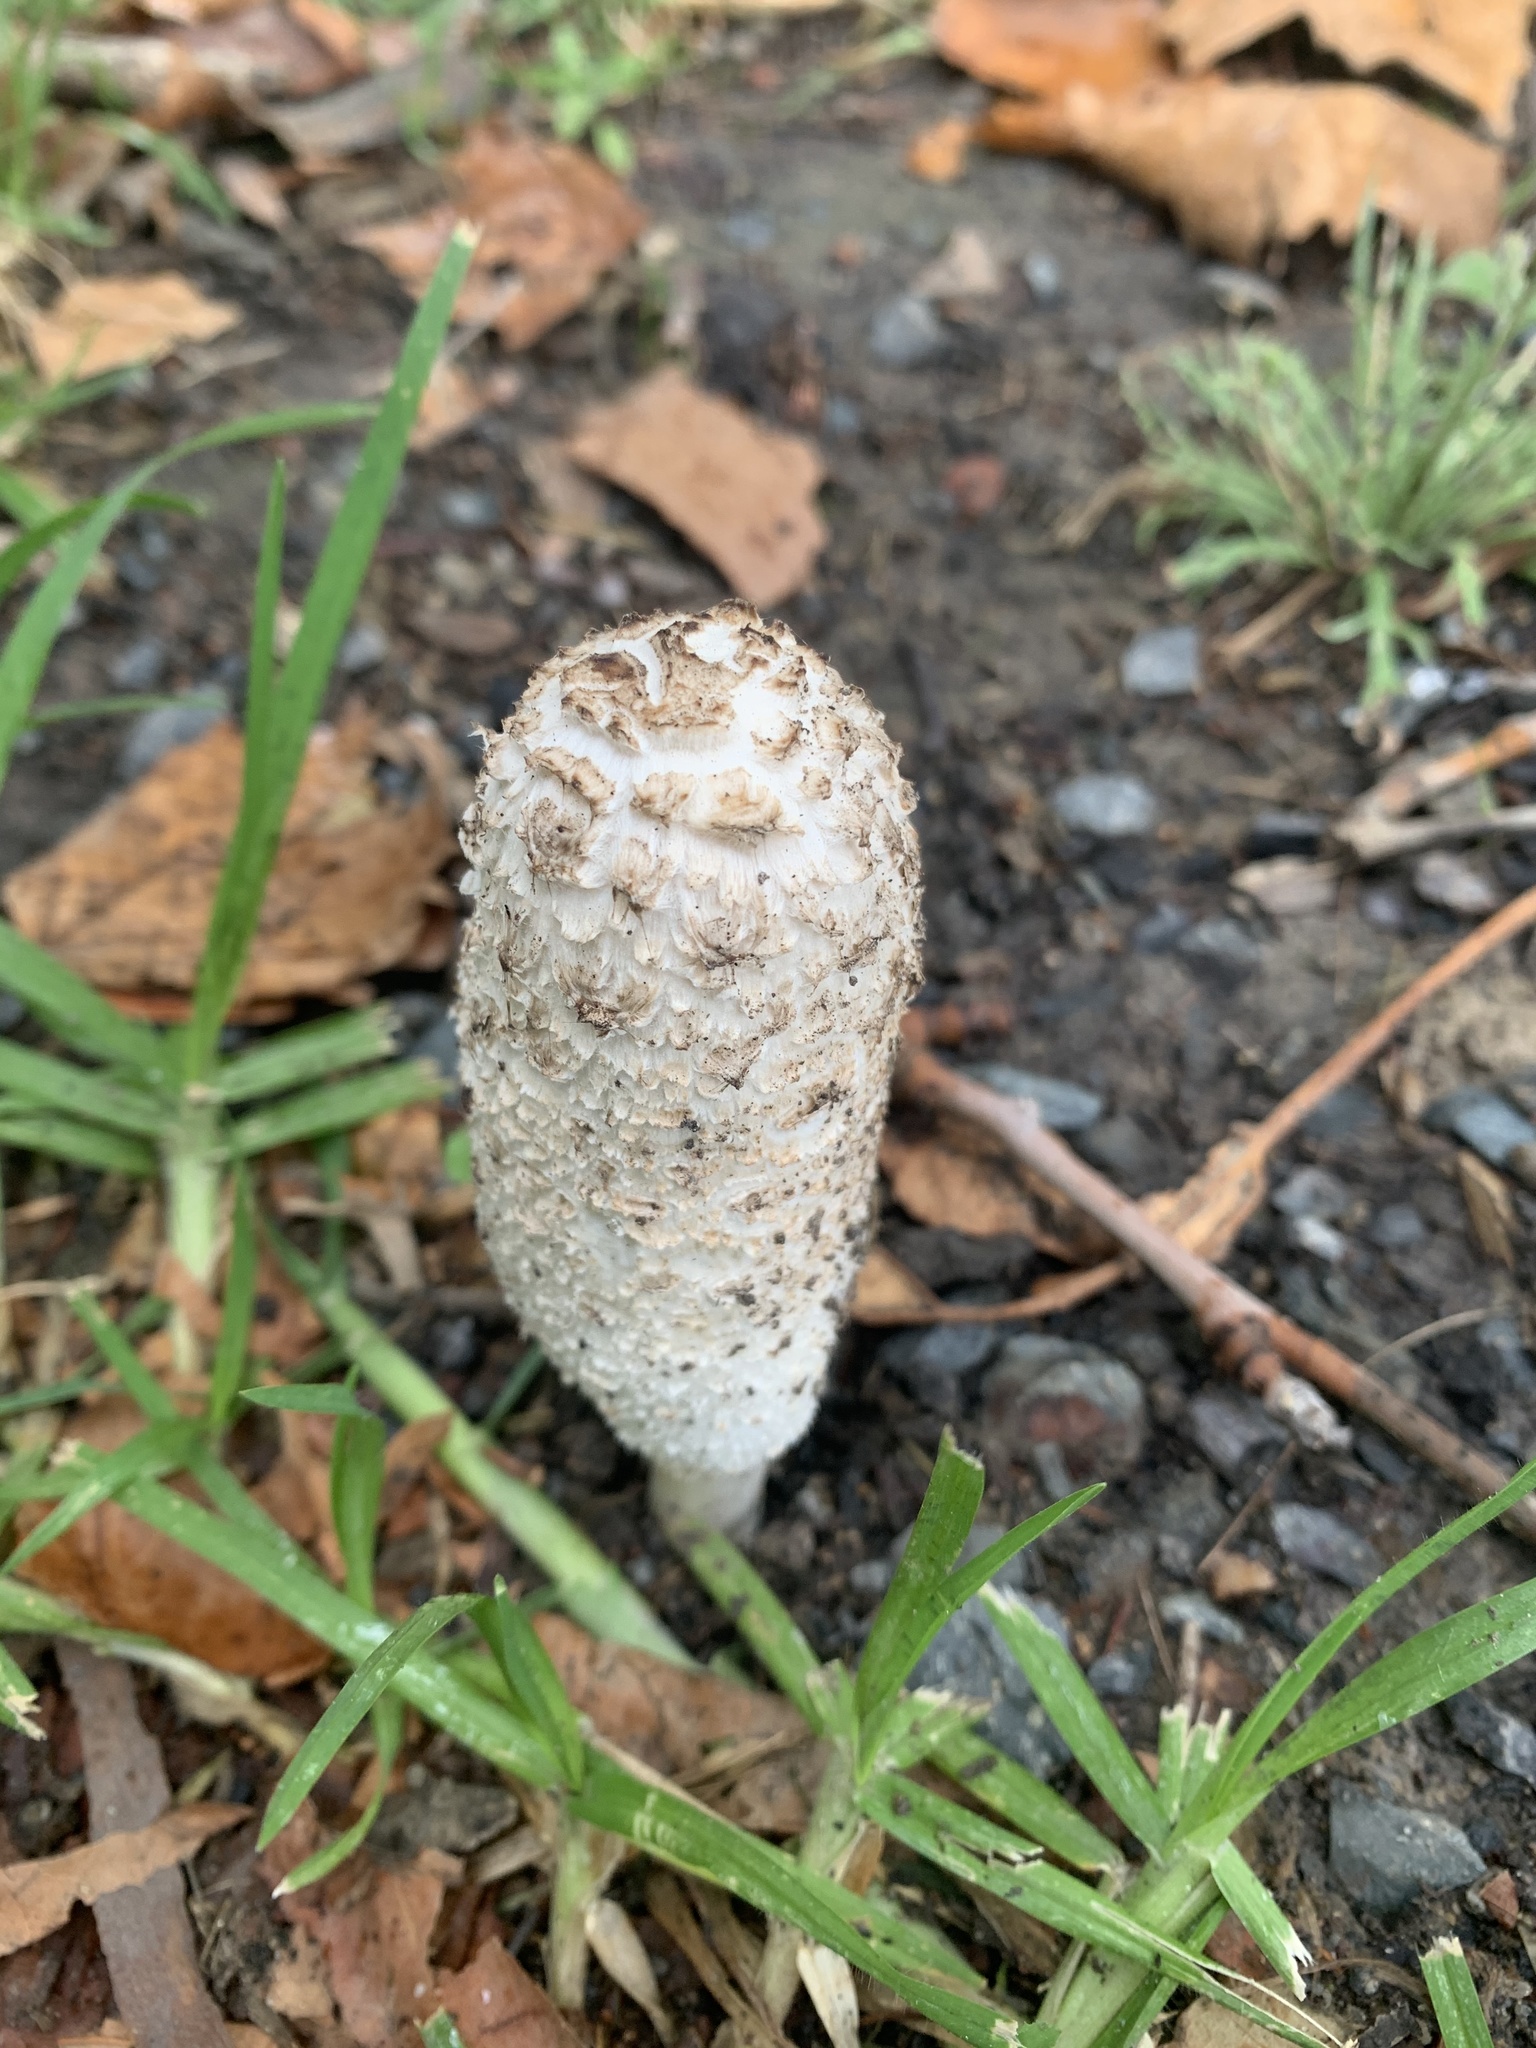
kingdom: Fungi
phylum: Basidiomycota
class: Agaricomycetes
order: Agaricales
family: Agaricaceae
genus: Coprinus
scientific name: Coprinus comatus
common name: Lawyer's wig
